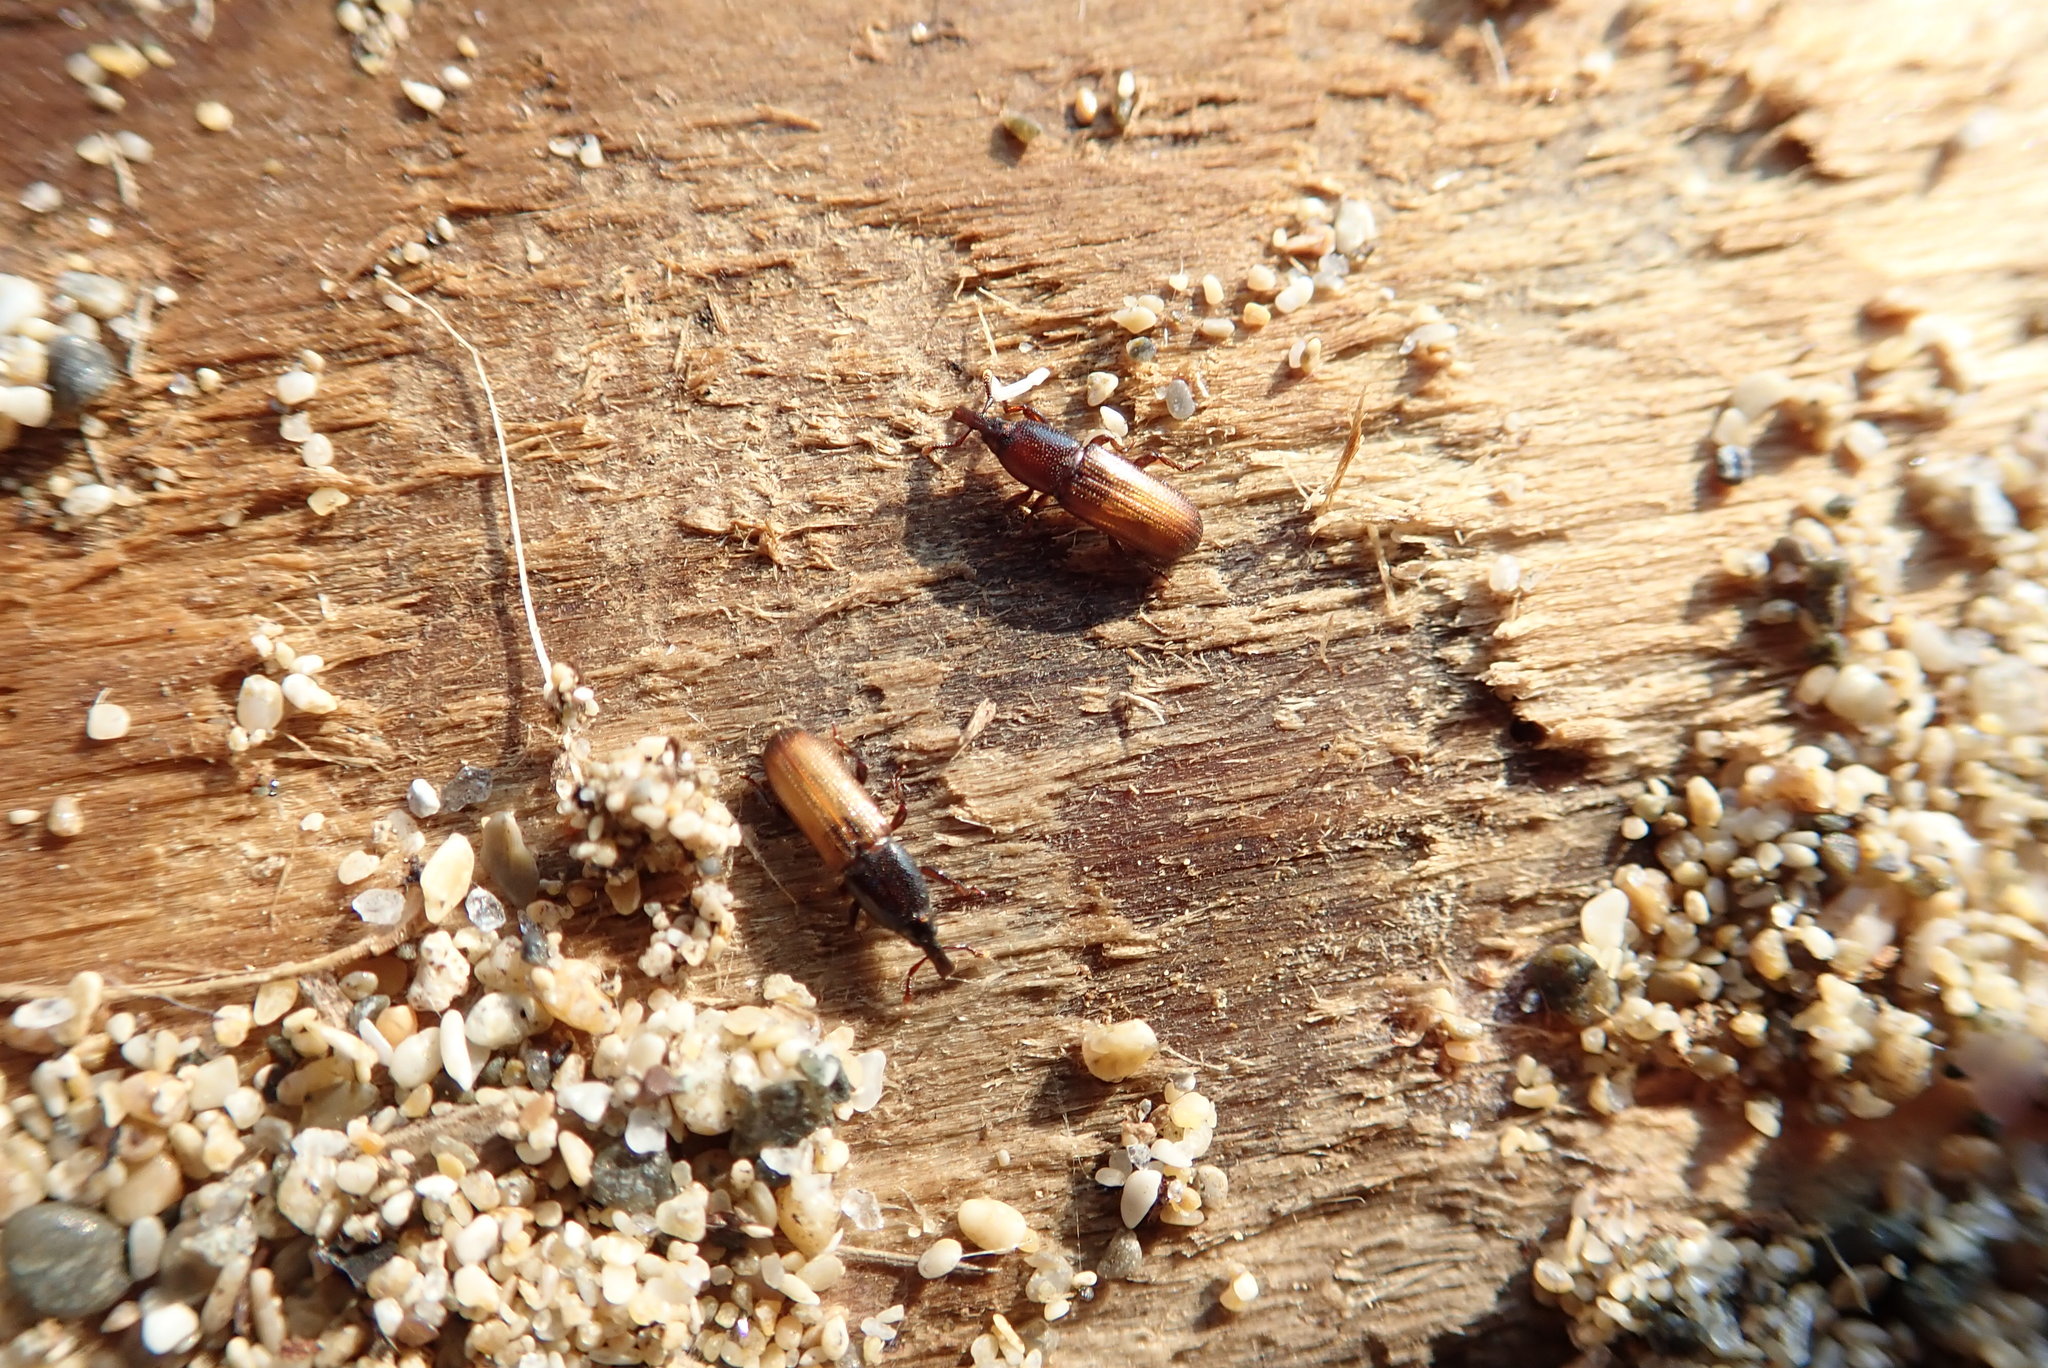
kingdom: Animalia
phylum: Arthropoda
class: Insecta
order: Coleoptera
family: Curculionidae
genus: Mesites
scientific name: Mesites pallidipennis
